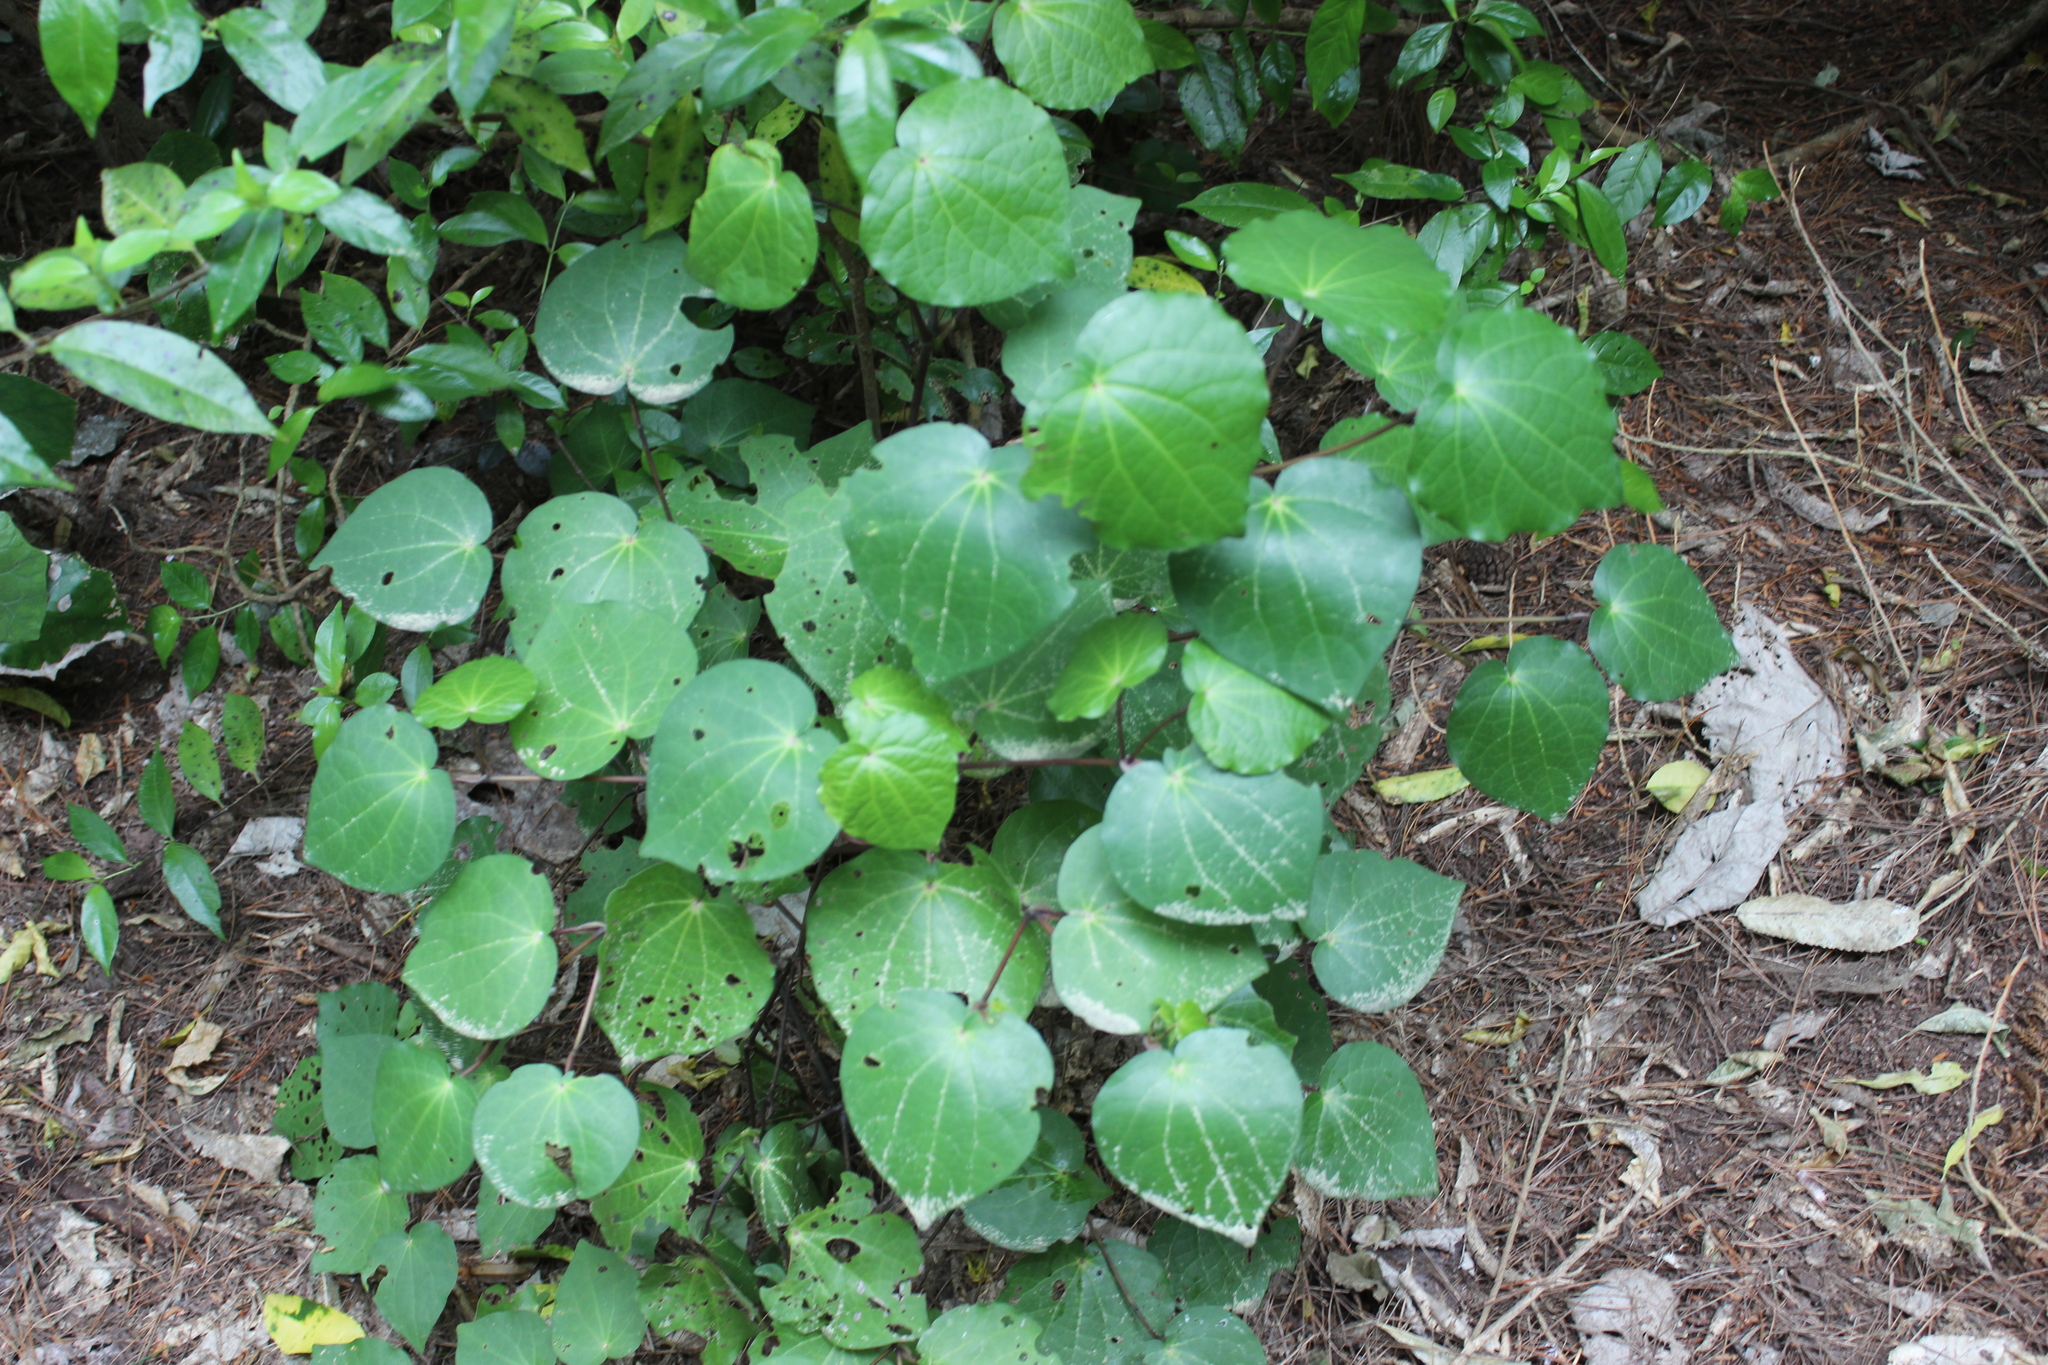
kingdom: Plantae
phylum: Tracheophyta
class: Magnoliopsida
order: Piperales
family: Piperaceae
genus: Macropiper
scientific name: Macropiper excelsum
